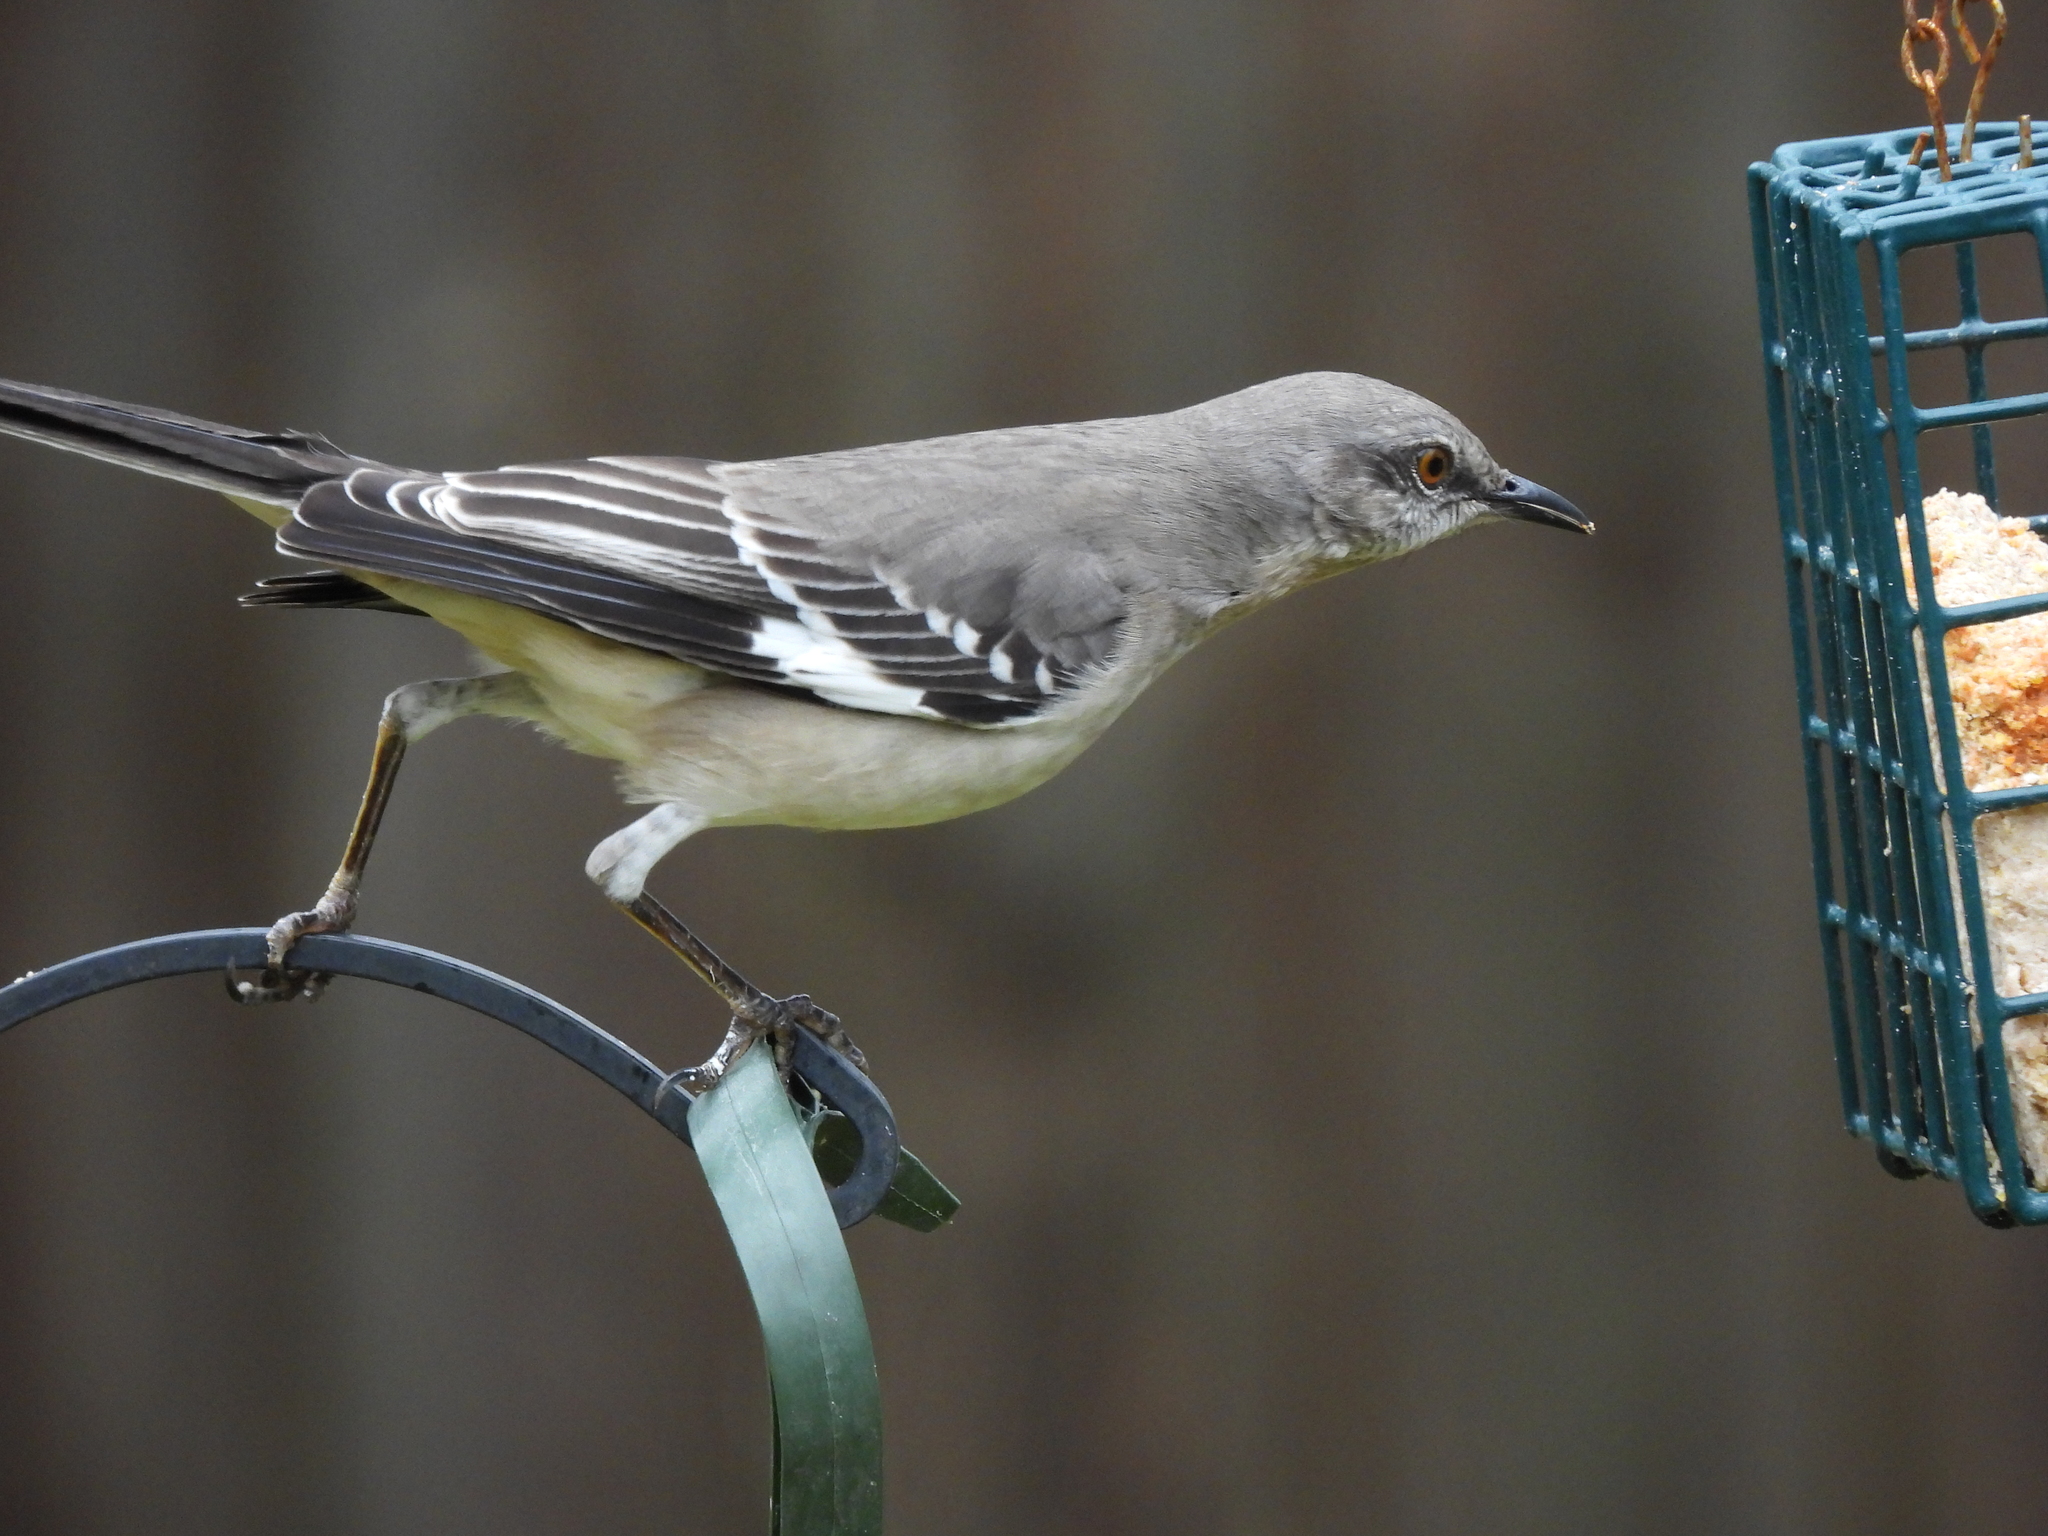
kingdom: Animalia
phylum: Chordata
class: Aves
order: Passeriformes
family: Mimidae
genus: Mimus
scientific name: Mimus polyglottos
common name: Northern mockingbird
